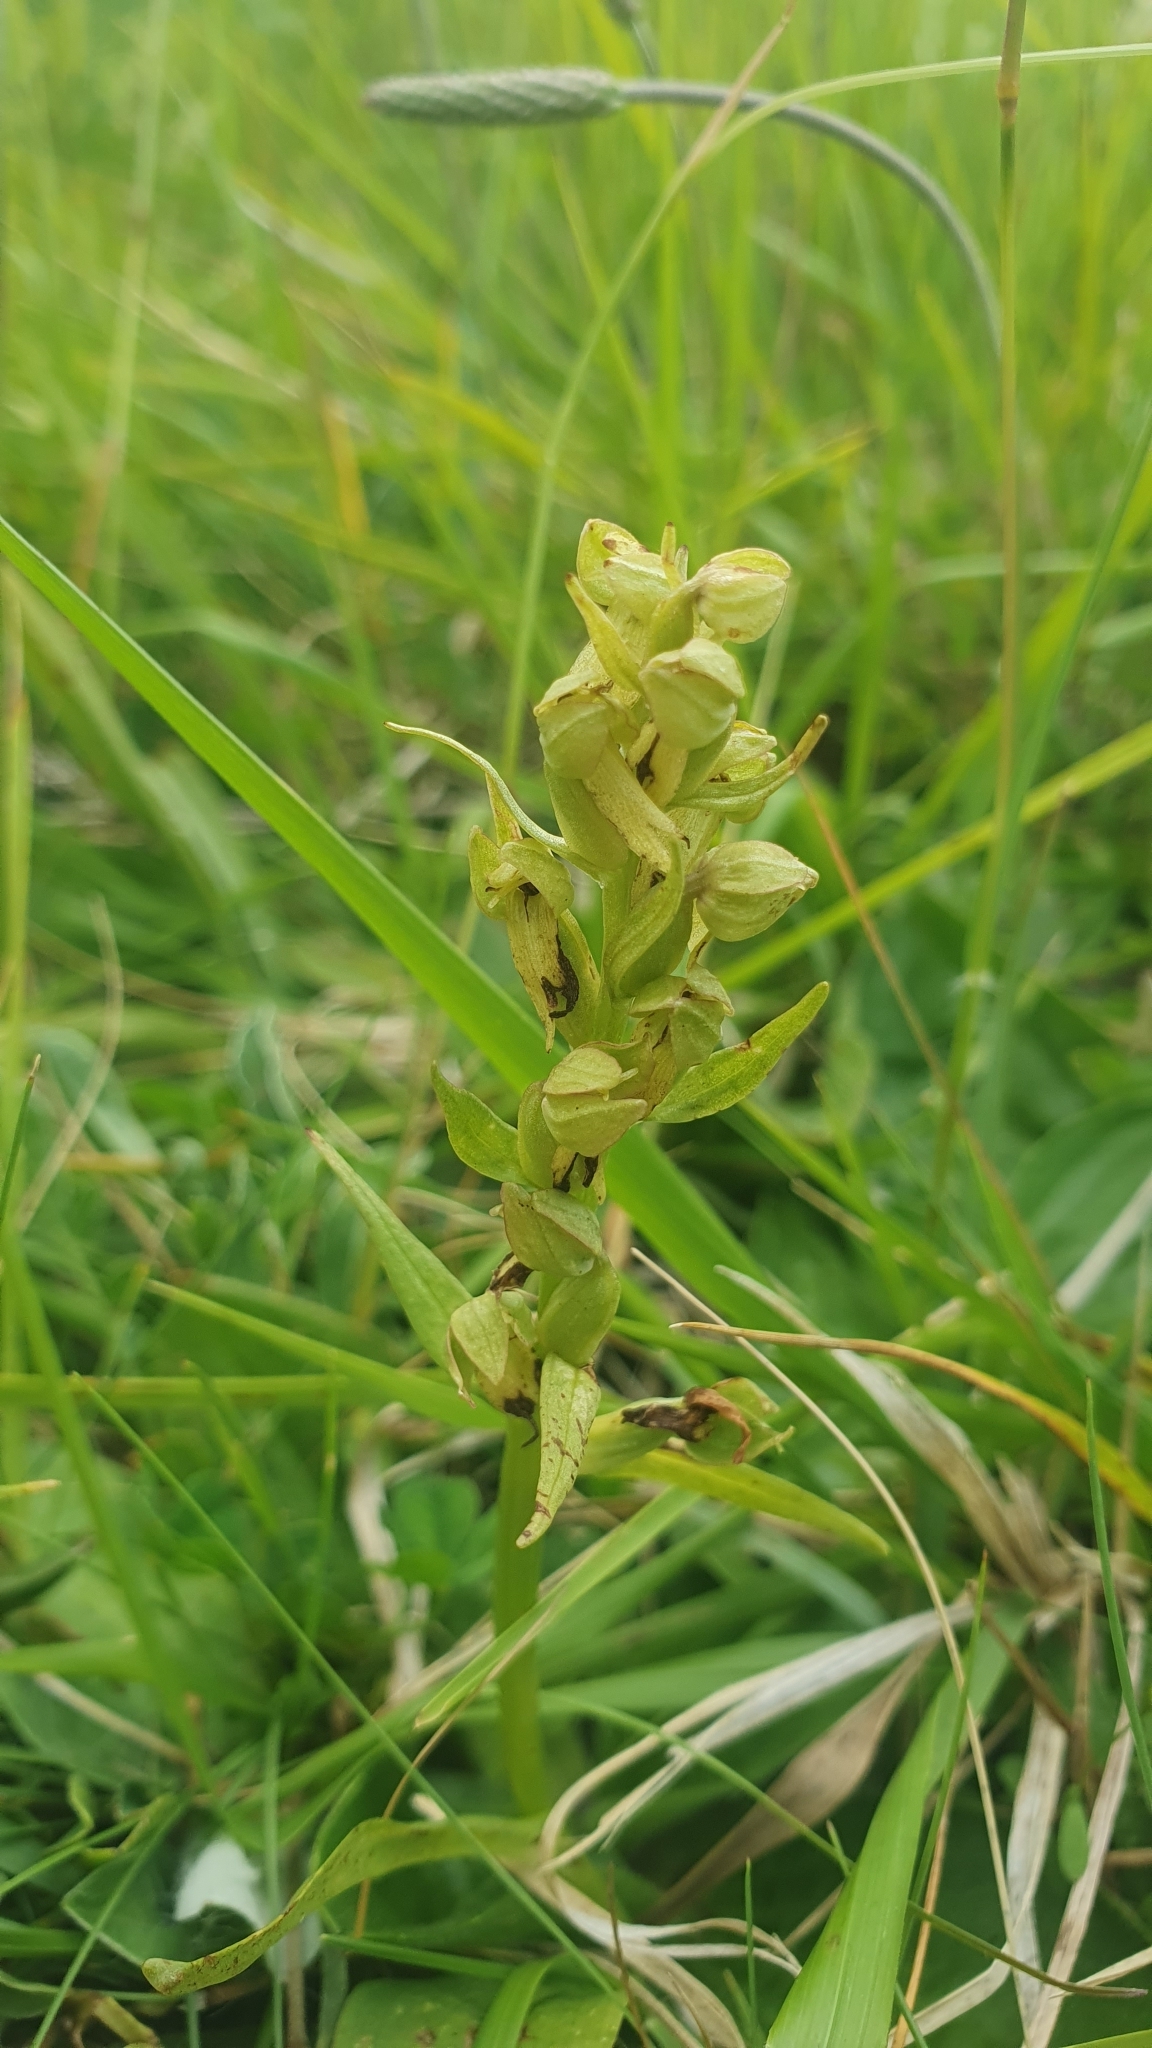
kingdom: Plantae
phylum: Tracheophyta
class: Liliopsida
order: Asparagales
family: Orchidaceae
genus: Dactylorhiza
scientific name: Dactylorhiza viridis
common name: Longbract frog orchid
